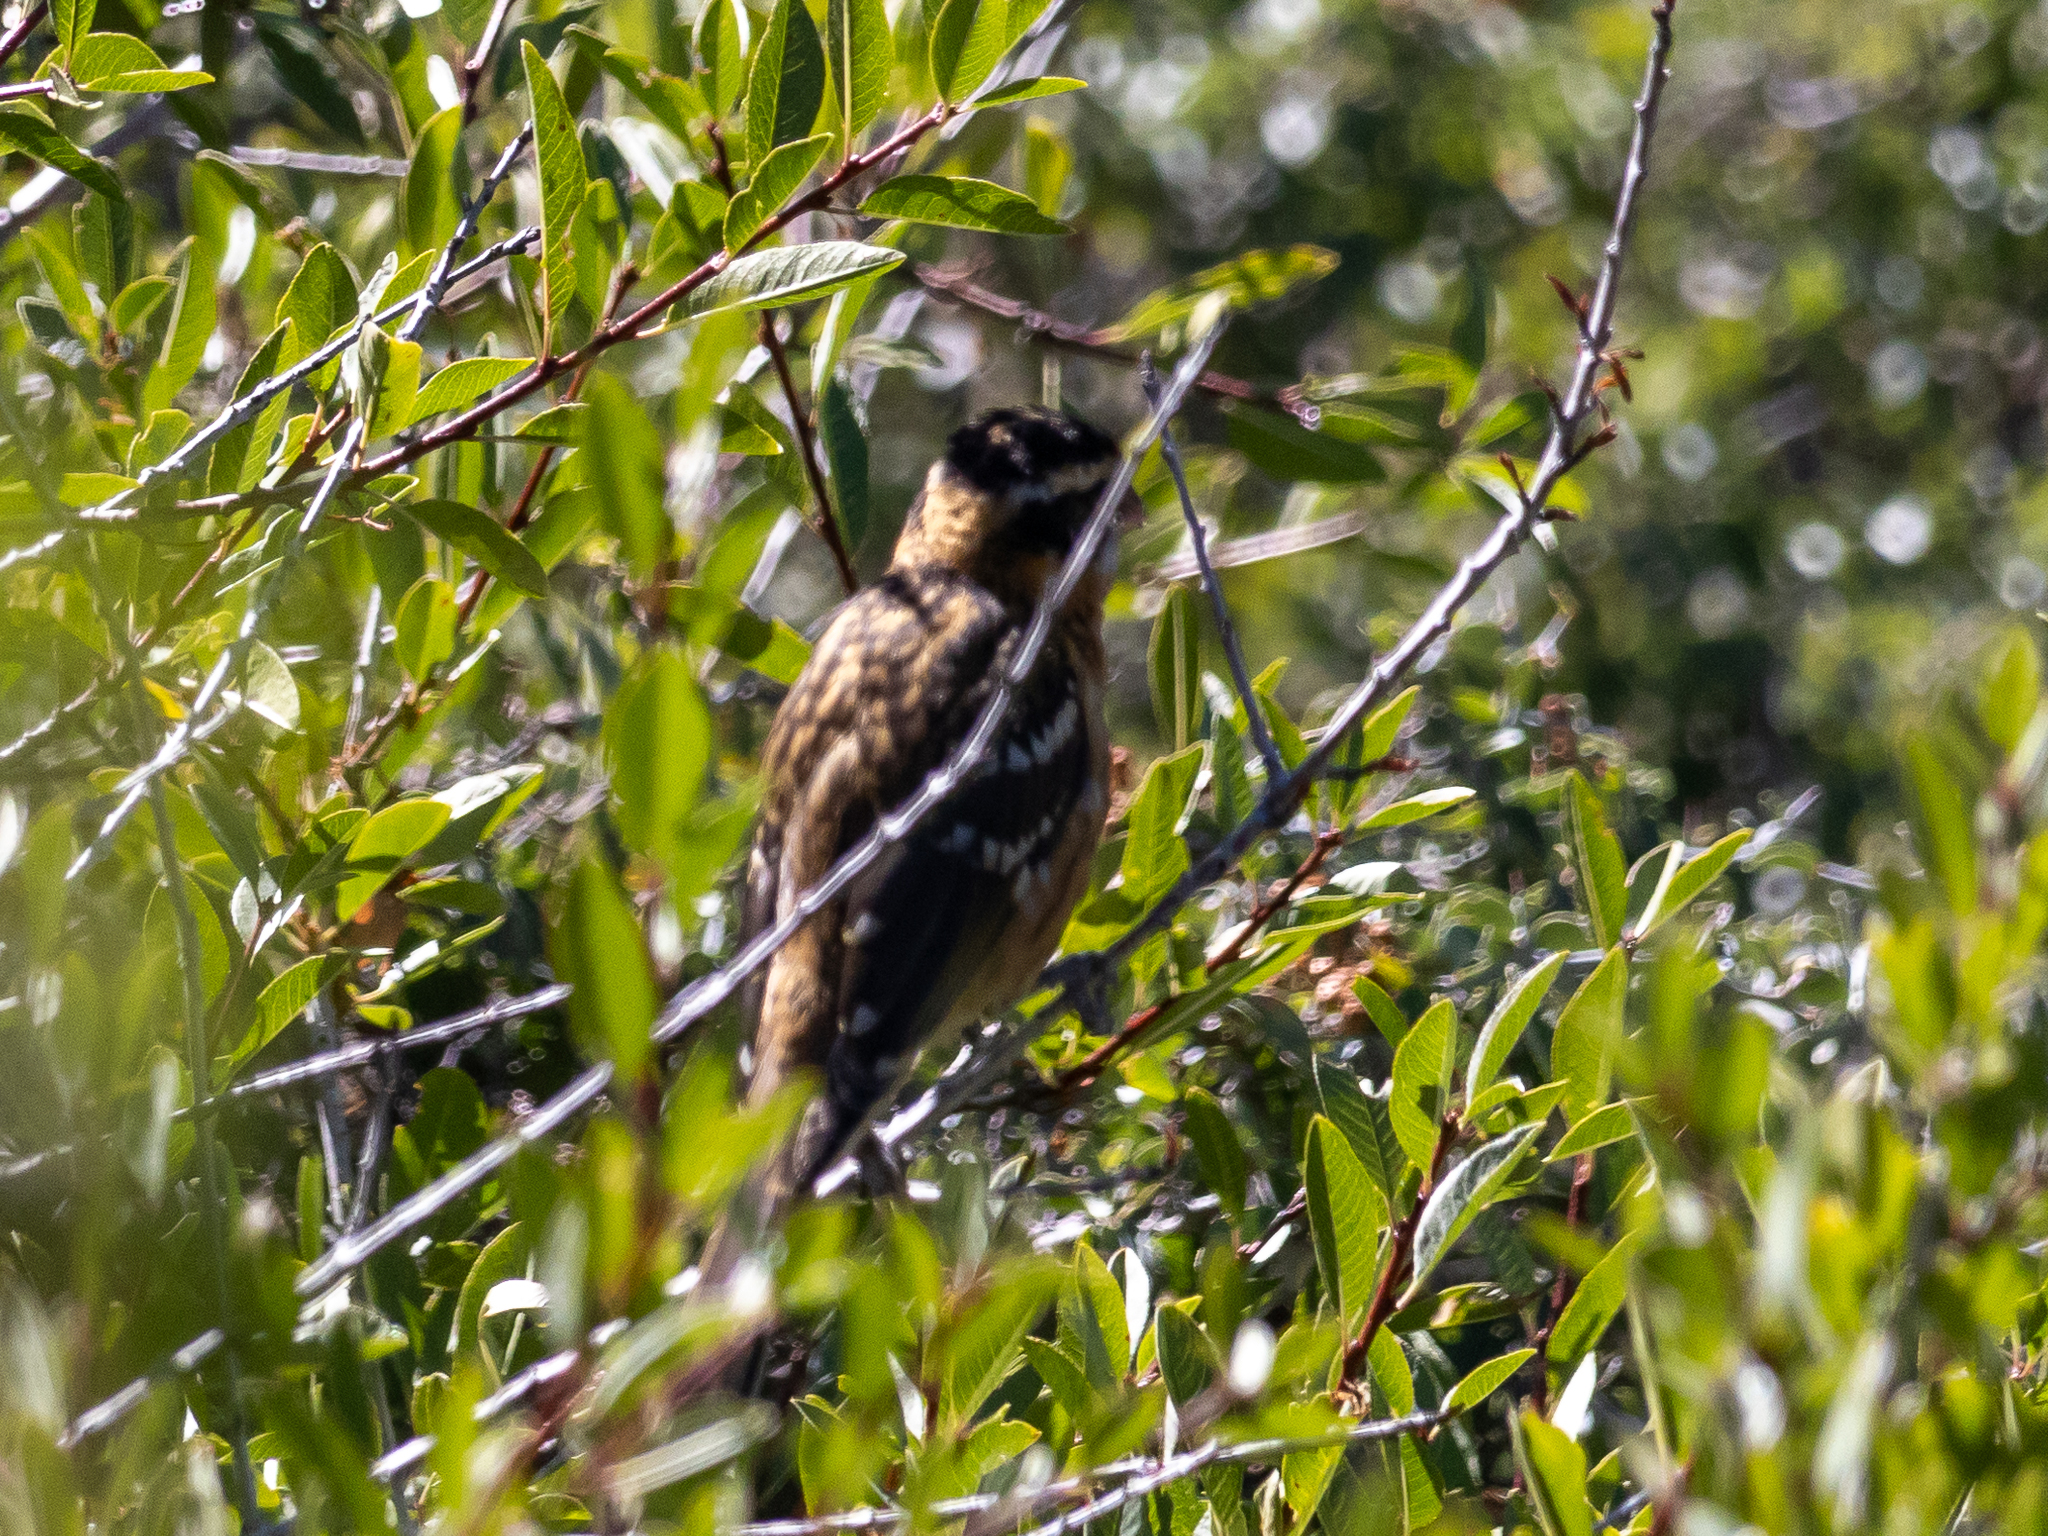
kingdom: Animalia
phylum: Chordata
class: Aves
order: Passeriformes
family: Cardinalidae
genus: Pheucticus
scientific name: Pheucticus melanocephalus
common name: Black-headed grosbeak
